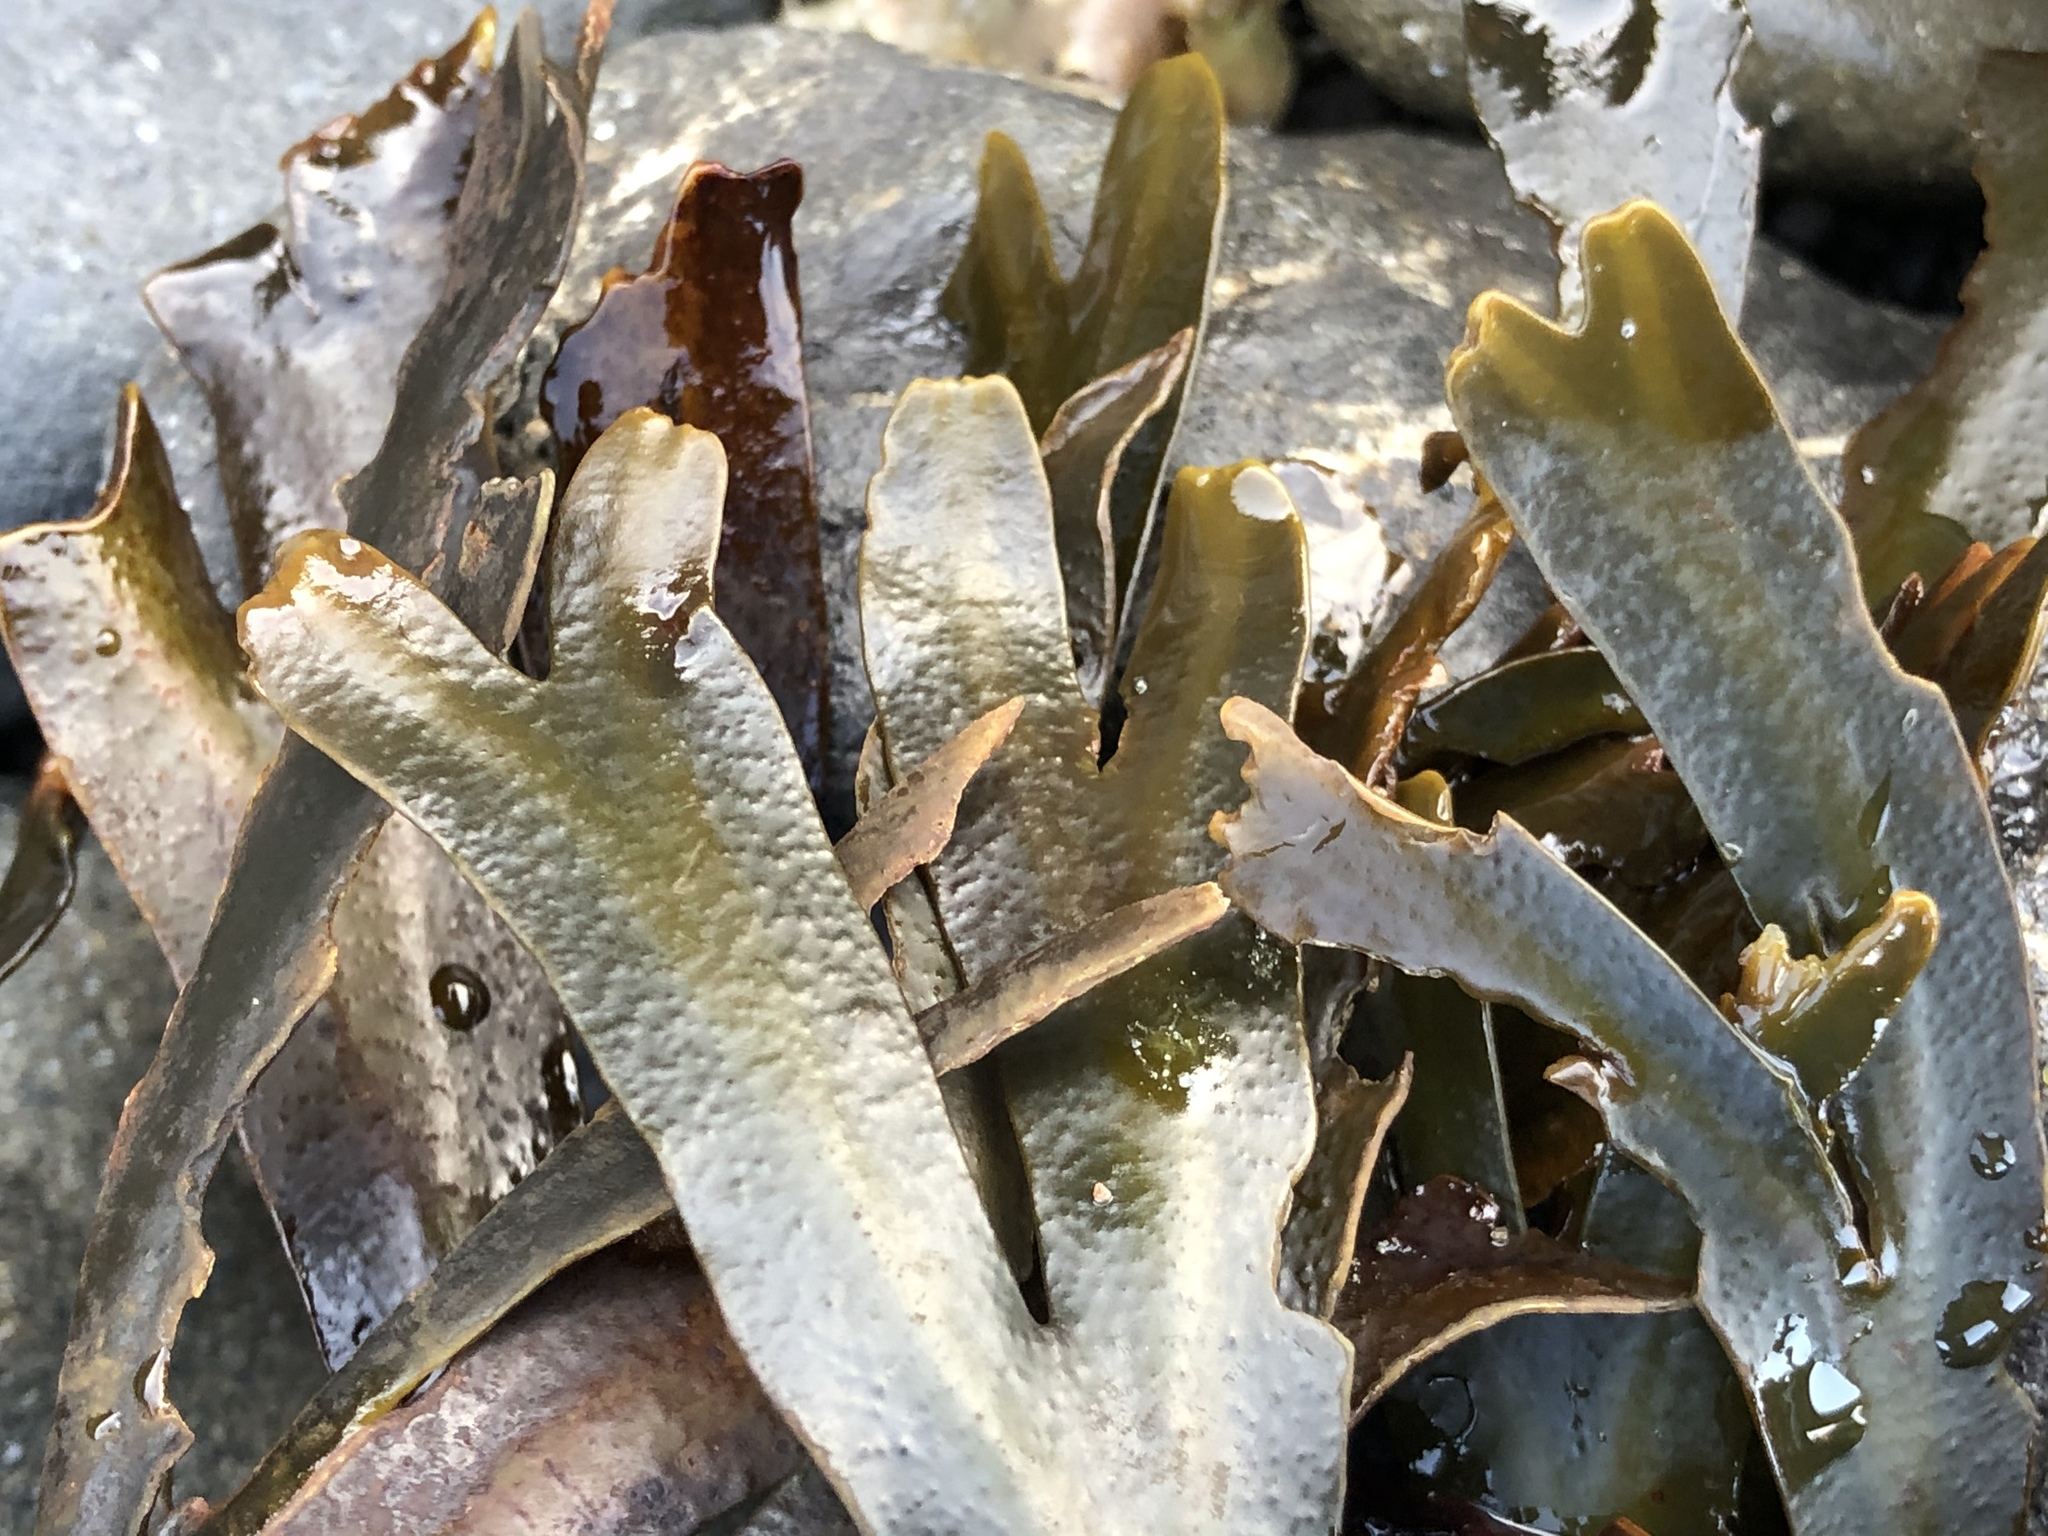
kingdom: Chromista
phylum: Ochrophyta
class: Phaeophyceae
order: Fucales
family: Fucaceae
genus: Fucus
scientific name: Fucus distichus
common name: Rockweed
